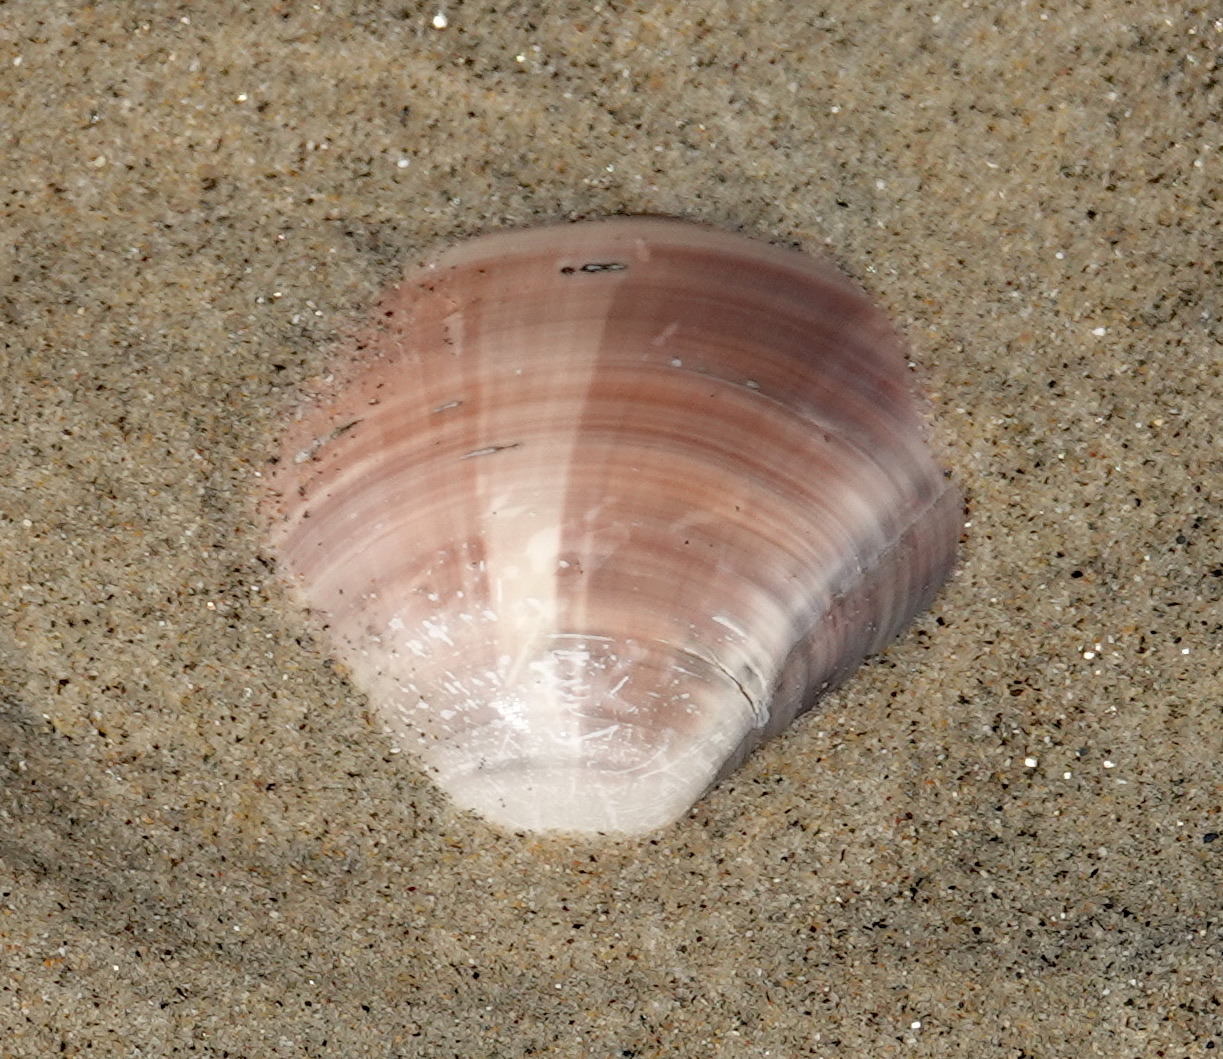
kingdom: Animalia
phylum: Mollusca
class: Bivalvia
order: Venerida
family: Veneridae
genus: Tivela
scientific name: Tivela stultorum
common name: Pismo clam
